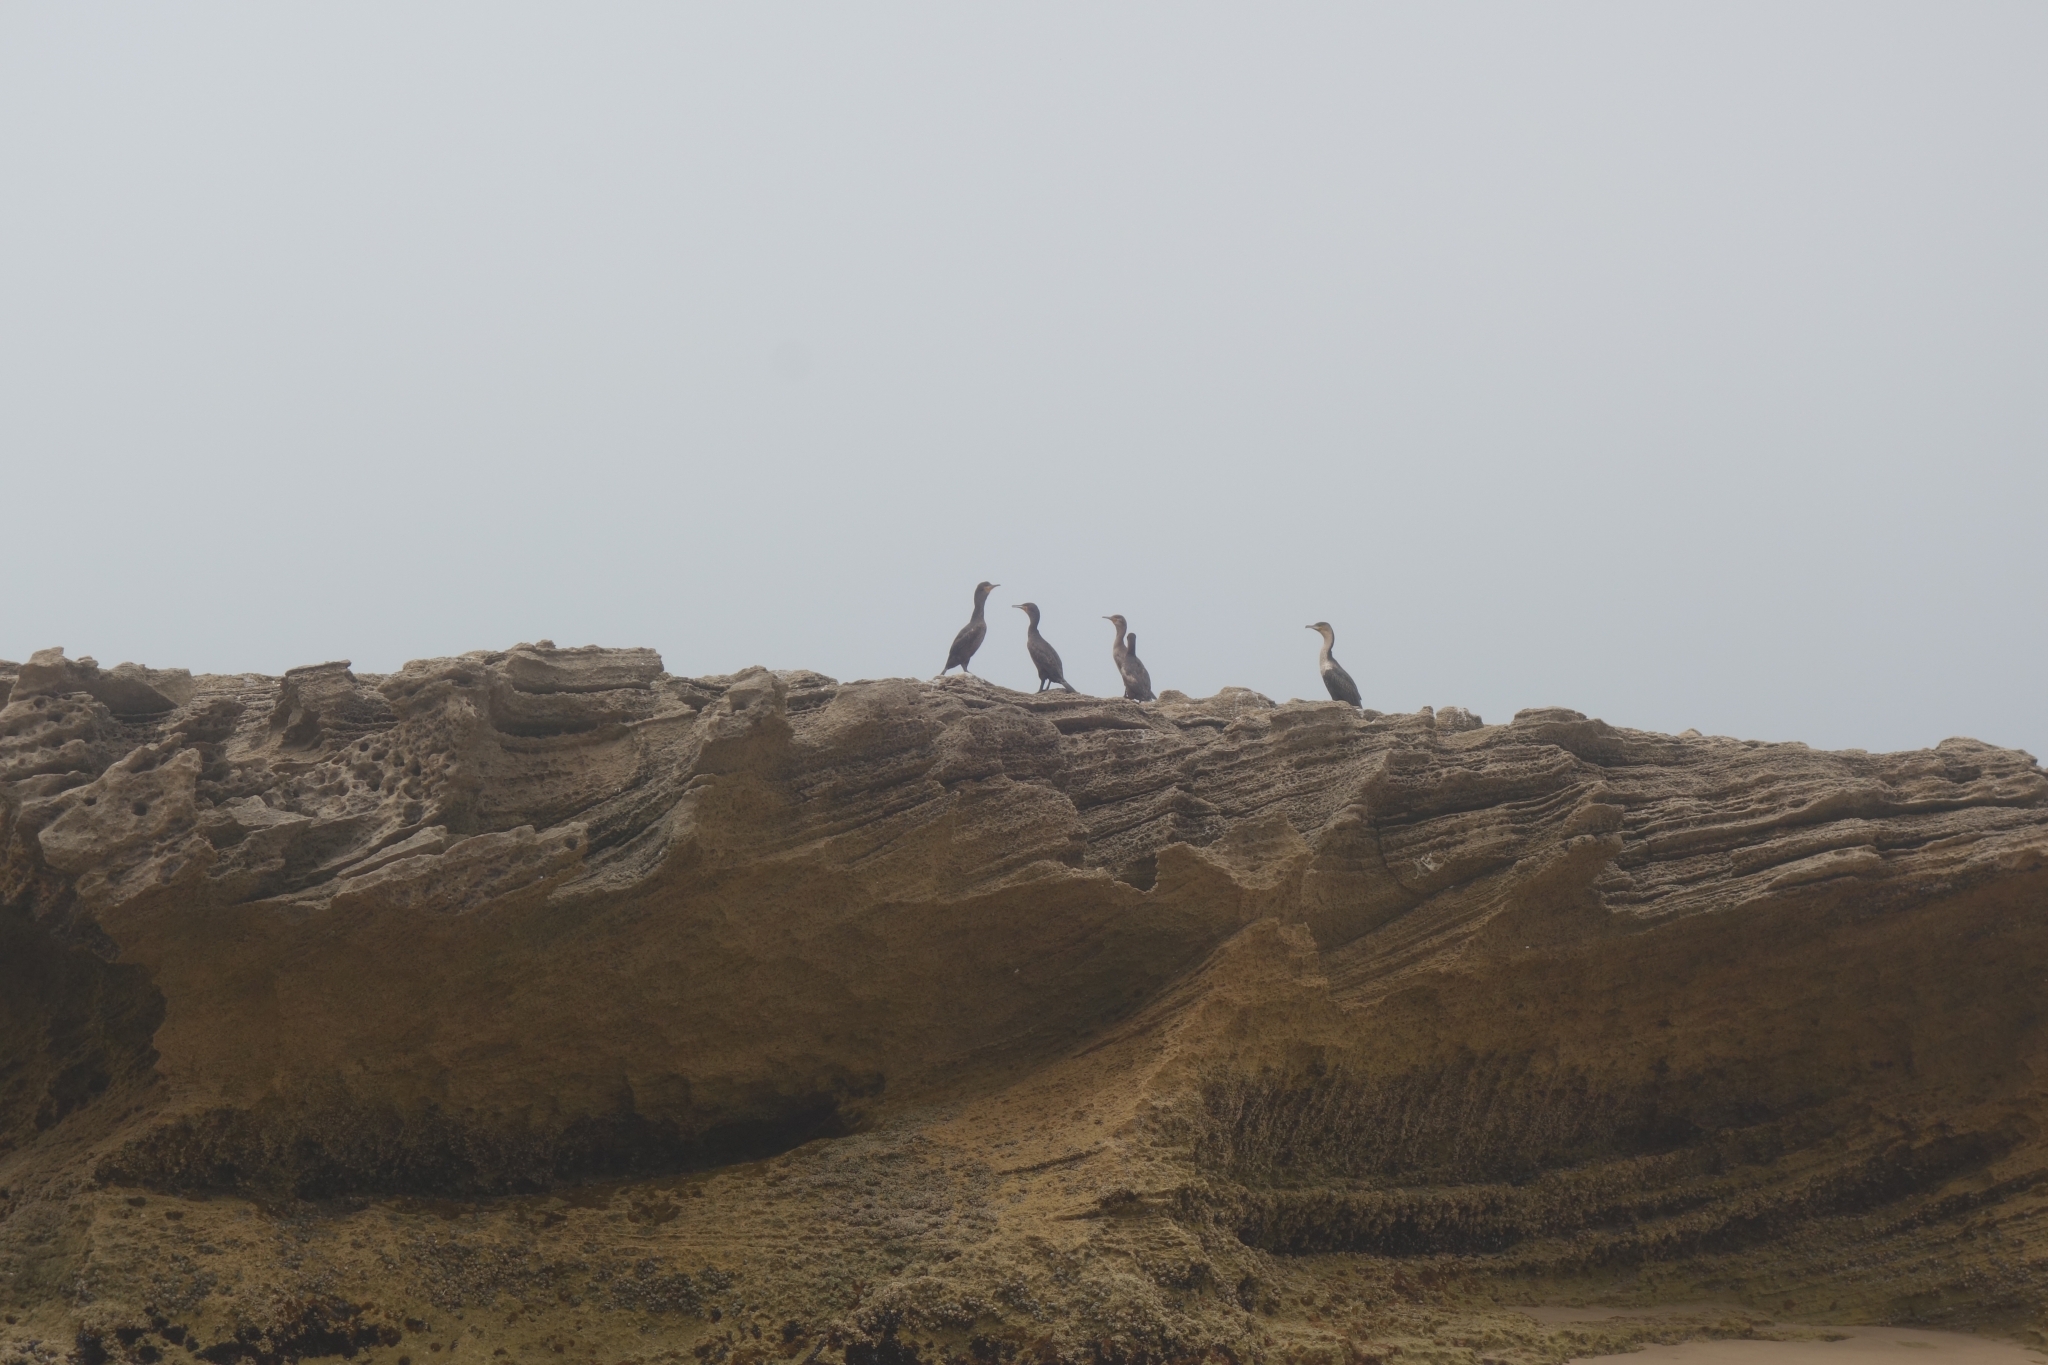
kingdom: Animalia
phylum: Chordata
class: Aves
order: Suliformes
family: Phalacrocoracidae
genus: Phalacrocorax
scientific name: Phalacrocorax carbo
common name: Great cormorant
